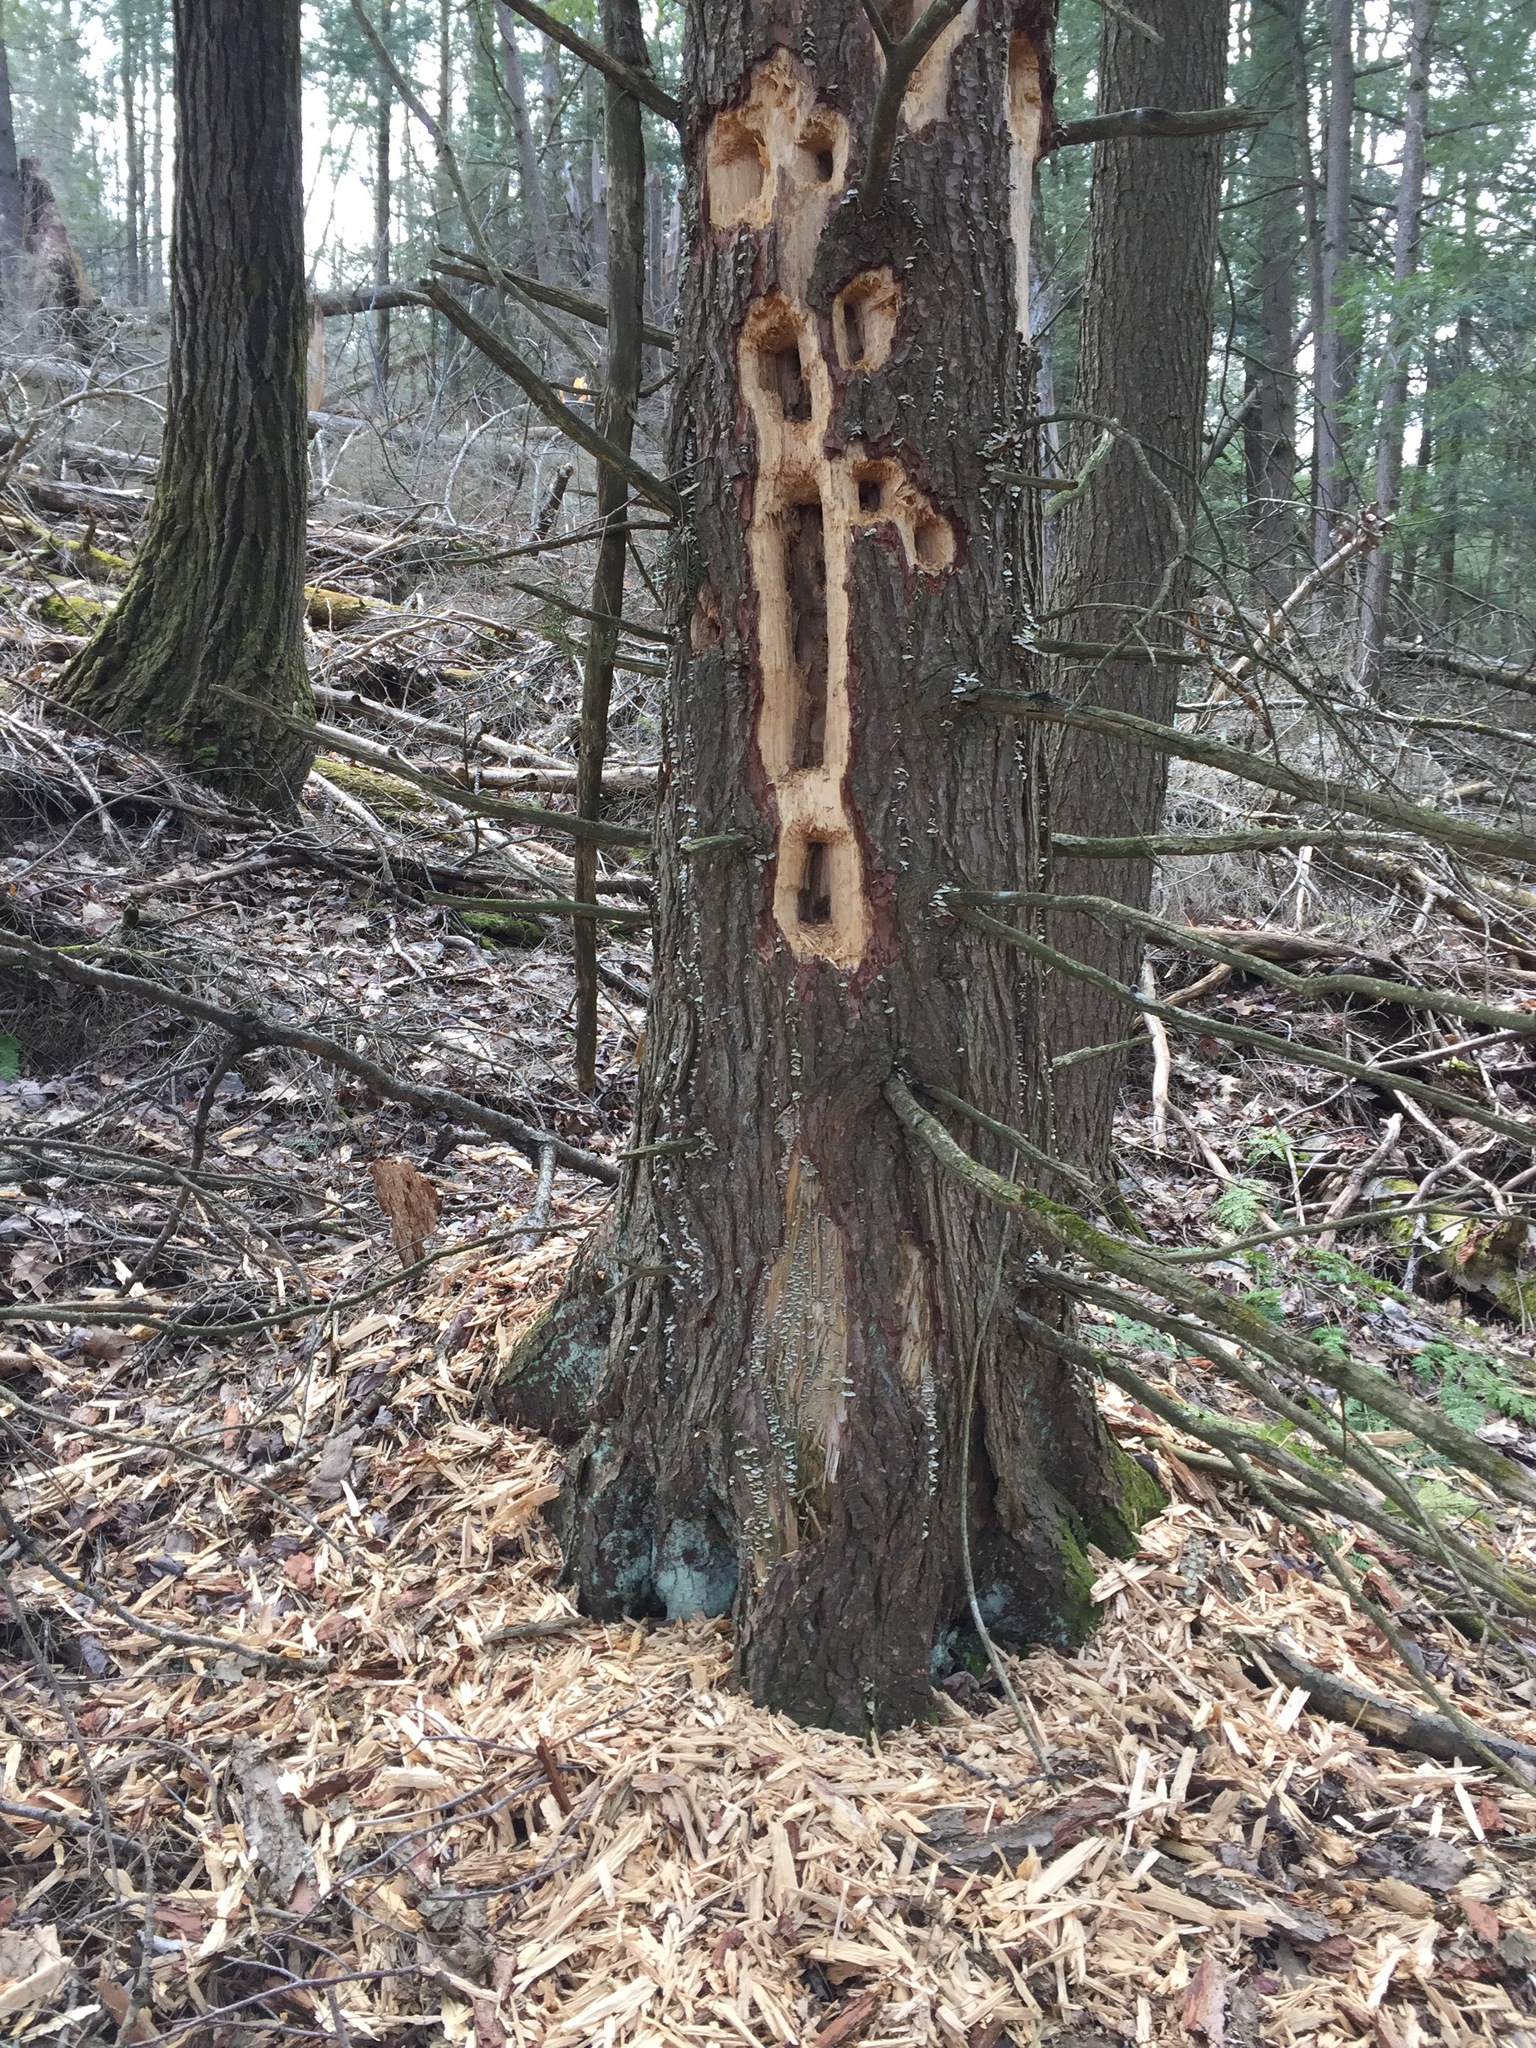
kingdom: Animalia
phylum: Chordata
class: Aves
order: Piciformes
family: Picidae
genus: Dryocopus
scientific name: Dryocopus pileatus
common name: Pileated woodpecker
